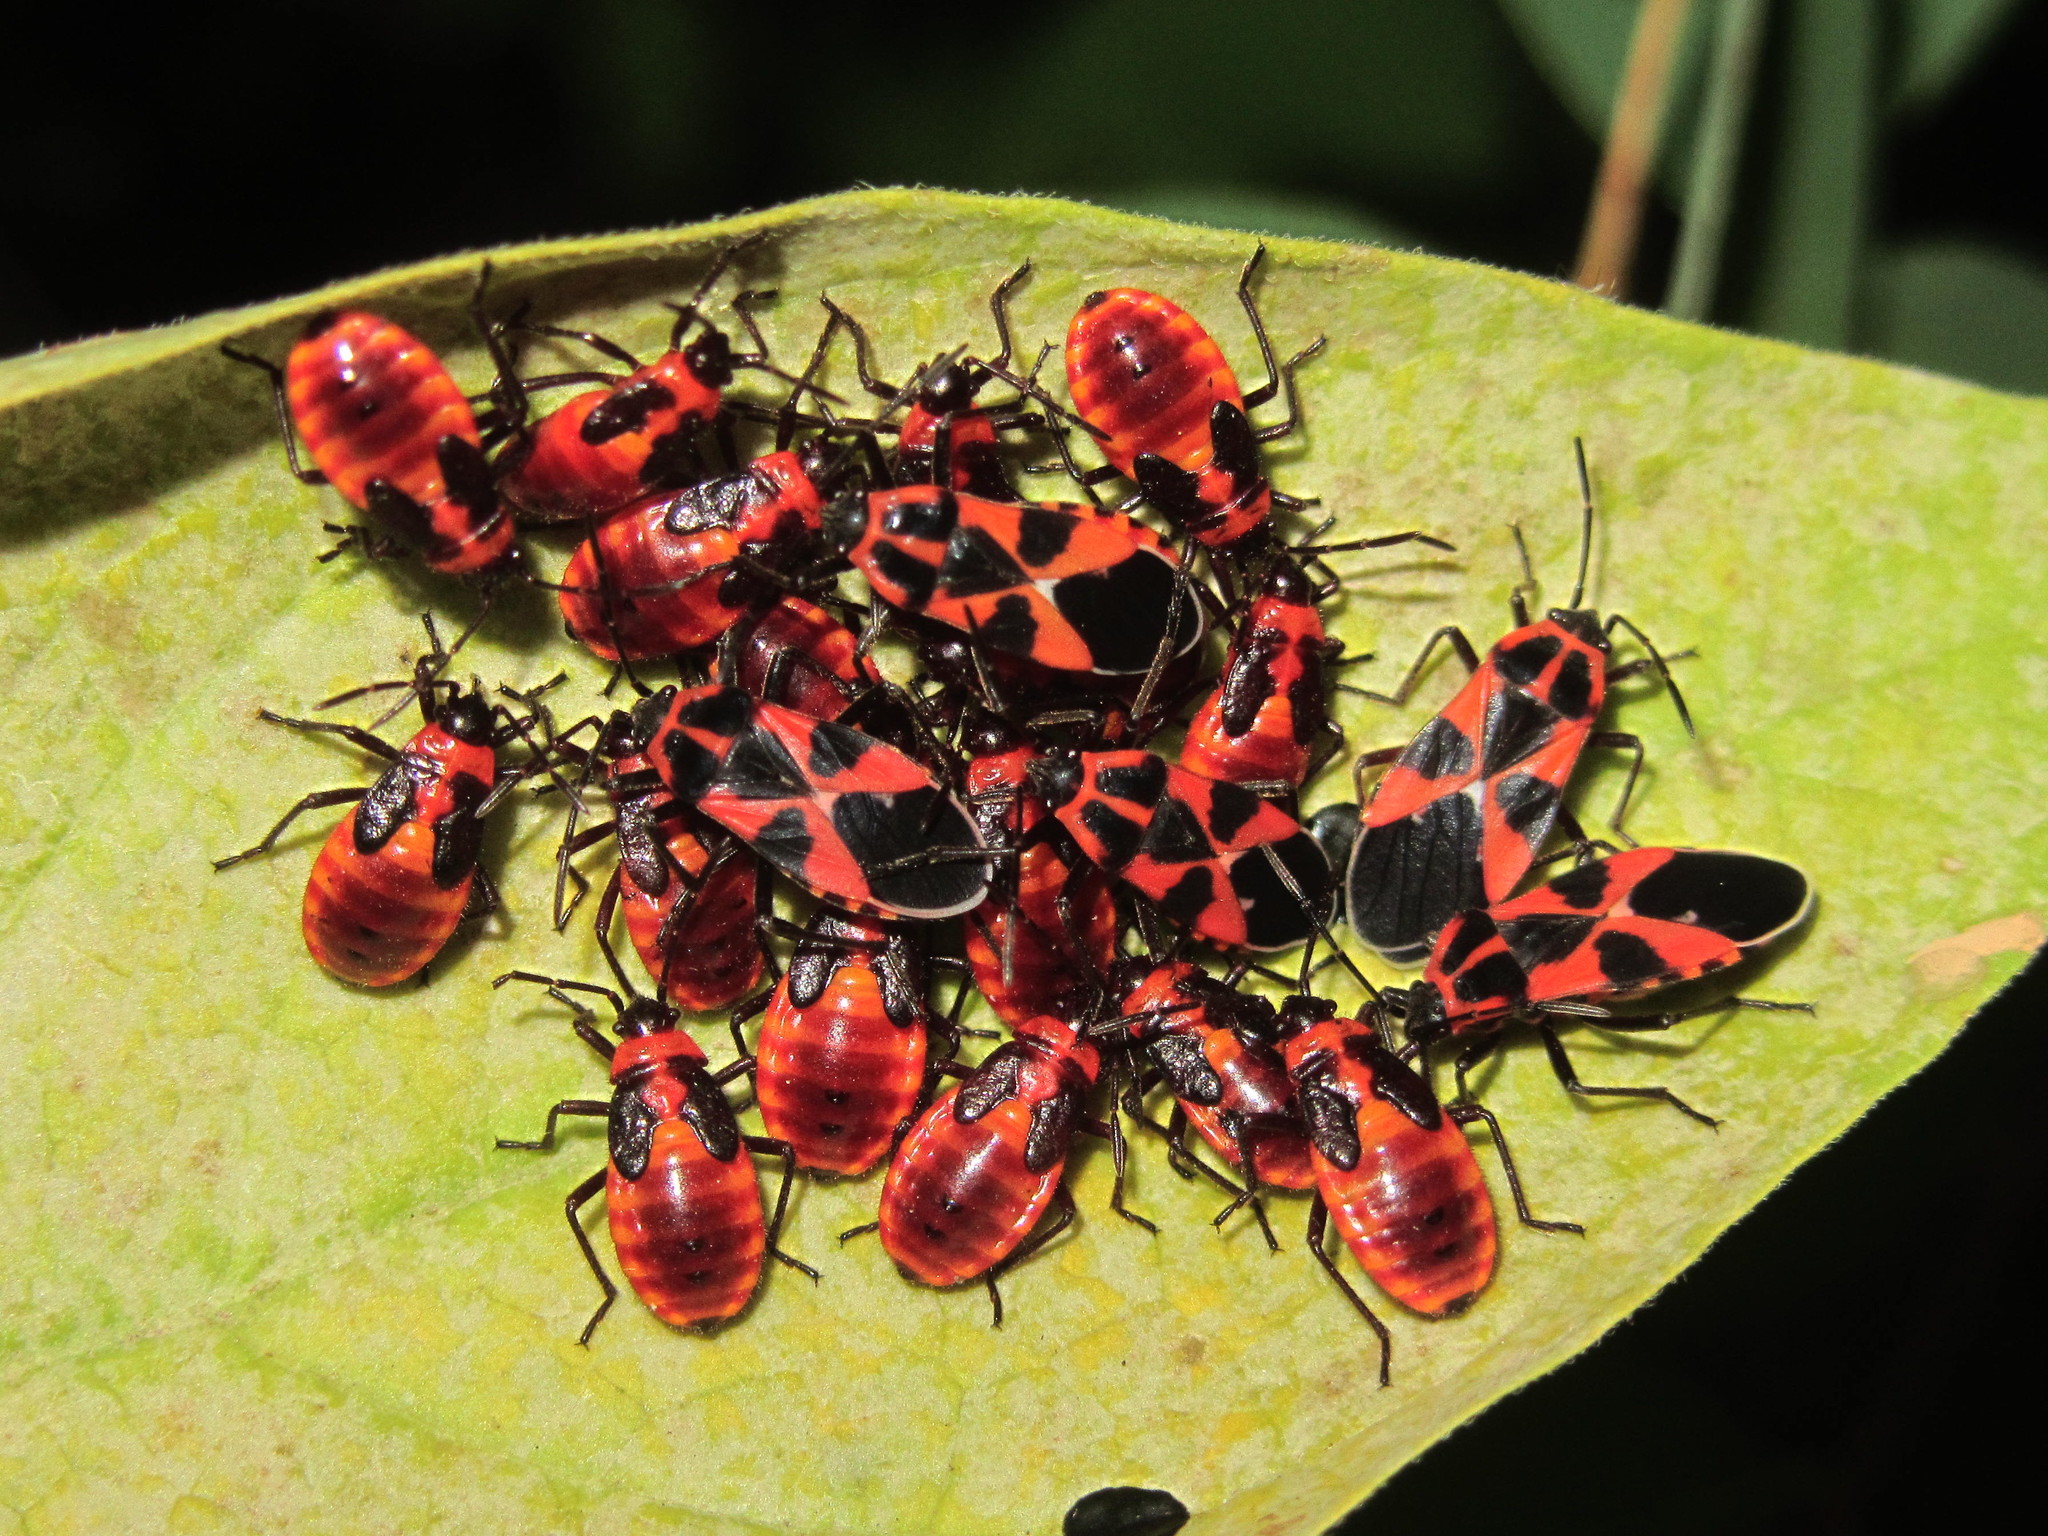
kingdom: Animalia
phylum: Arthropoda
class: Insecta
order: Hemiptera
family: Lygaeidae
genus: Tropidothorax
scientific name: Tropidothorax leucopterus
